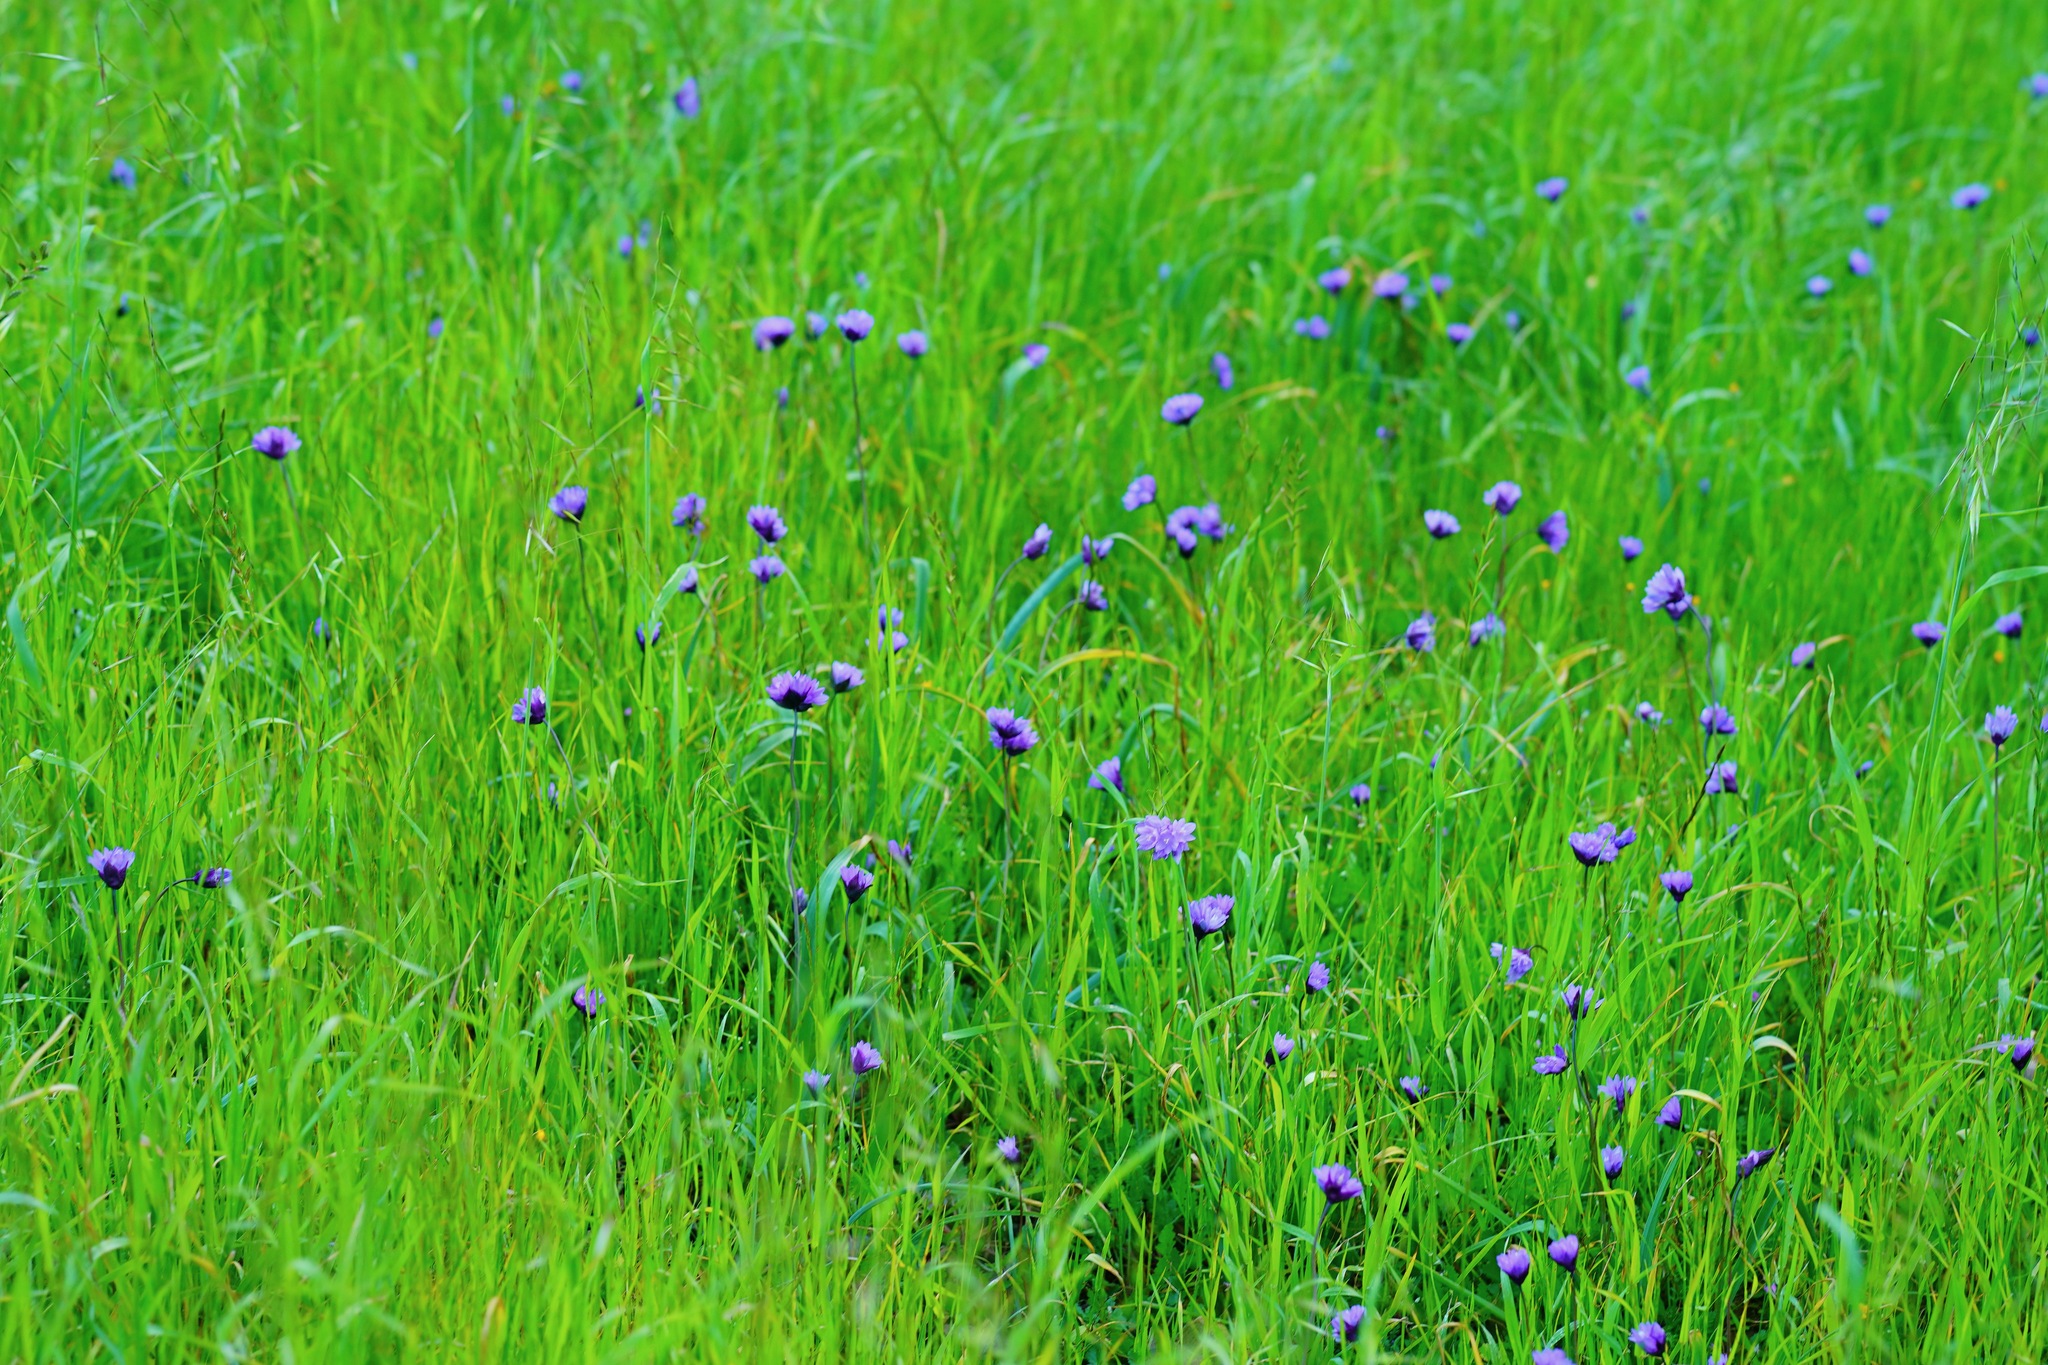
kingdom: Plantae
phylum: Tracheophyta
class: Liliopsida
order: Asparagales
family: Asparagaceae
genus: Dipterostemon
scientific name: Dipterostemon capitatus
